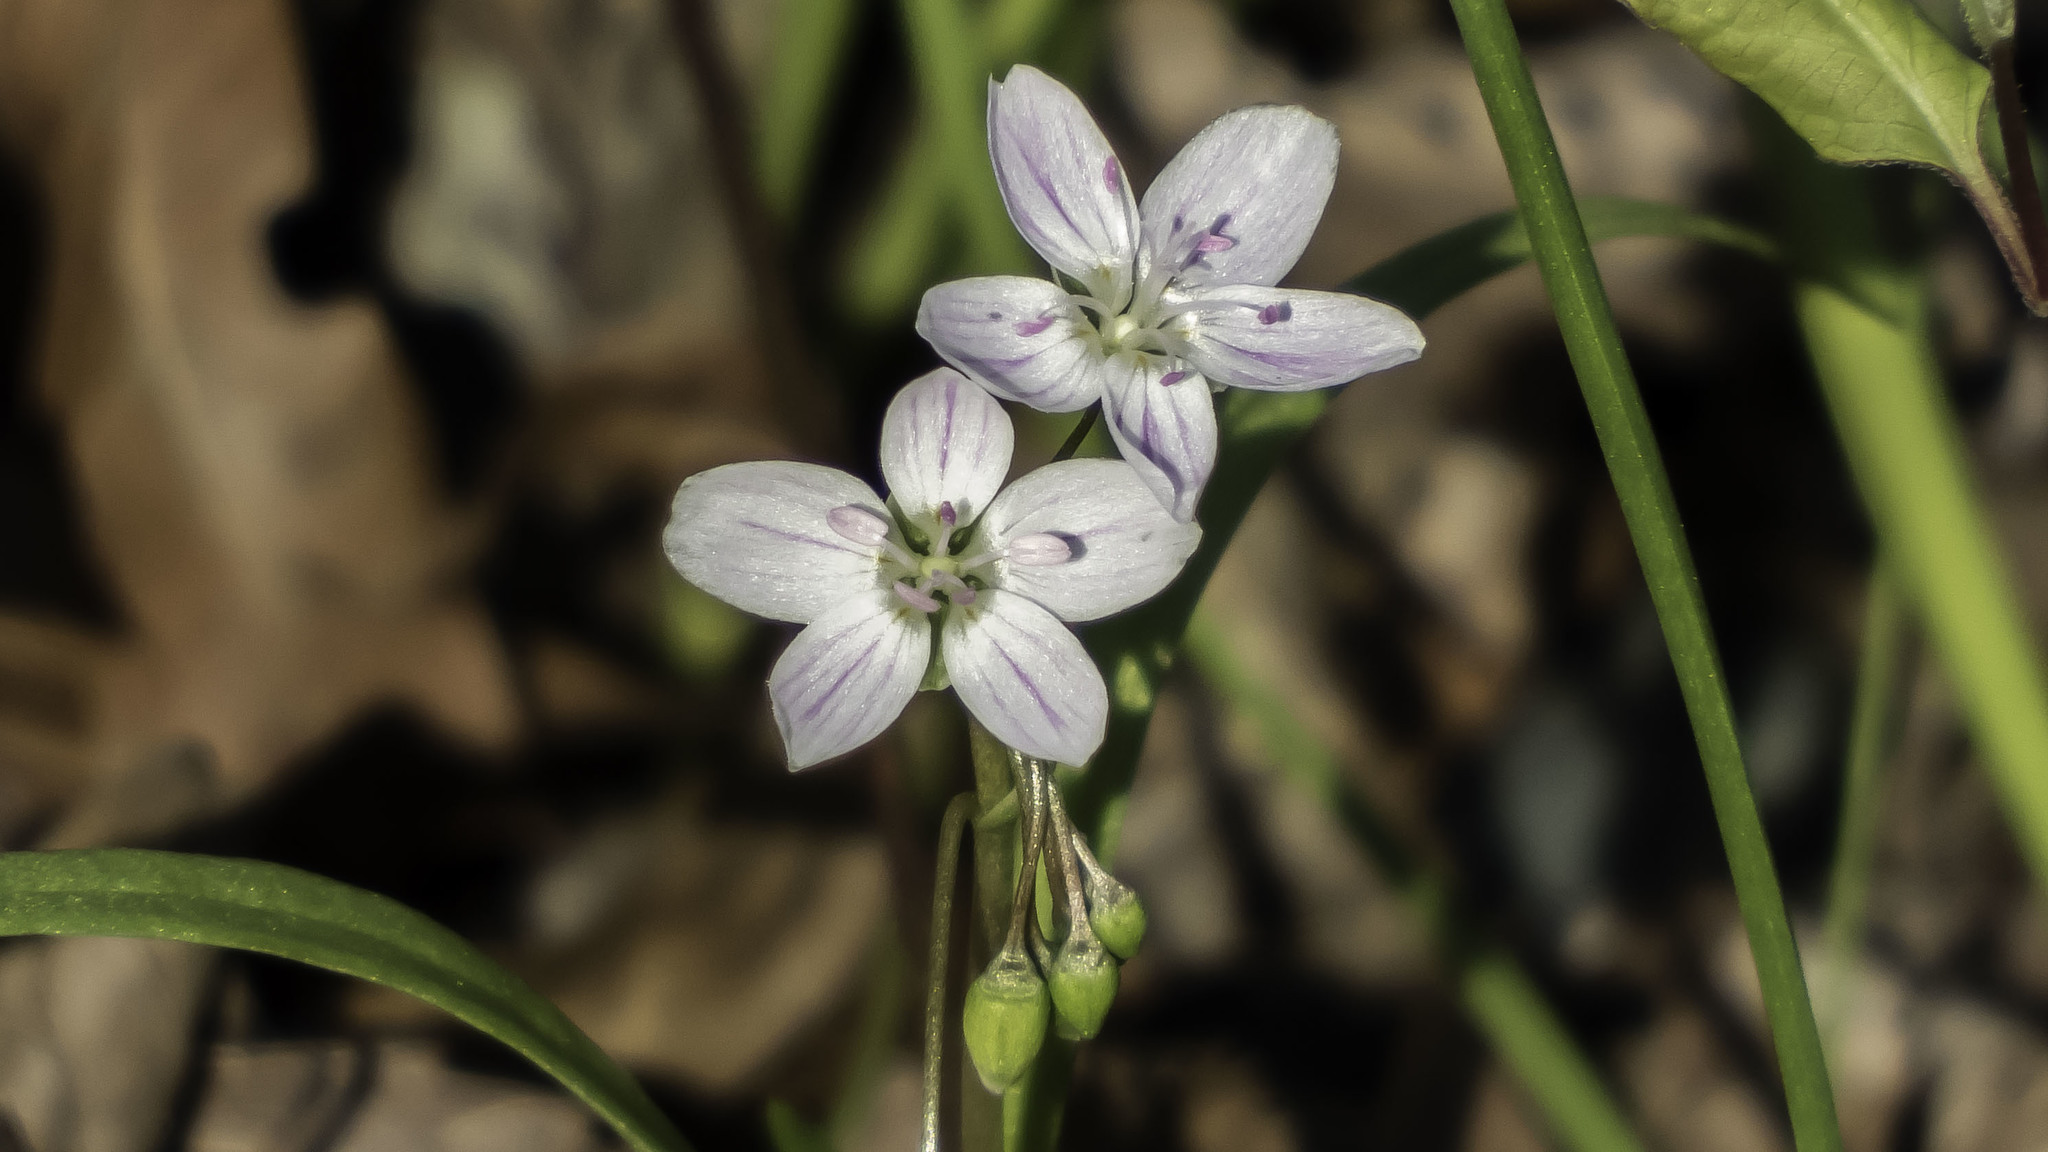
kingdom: Plantae
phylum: Tracheophyta
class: Magnoliopsida
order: Caryophyllales
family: Montiaceae
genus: Claytonia
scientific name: Claytonia virginica
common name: Virginia springbeauty
